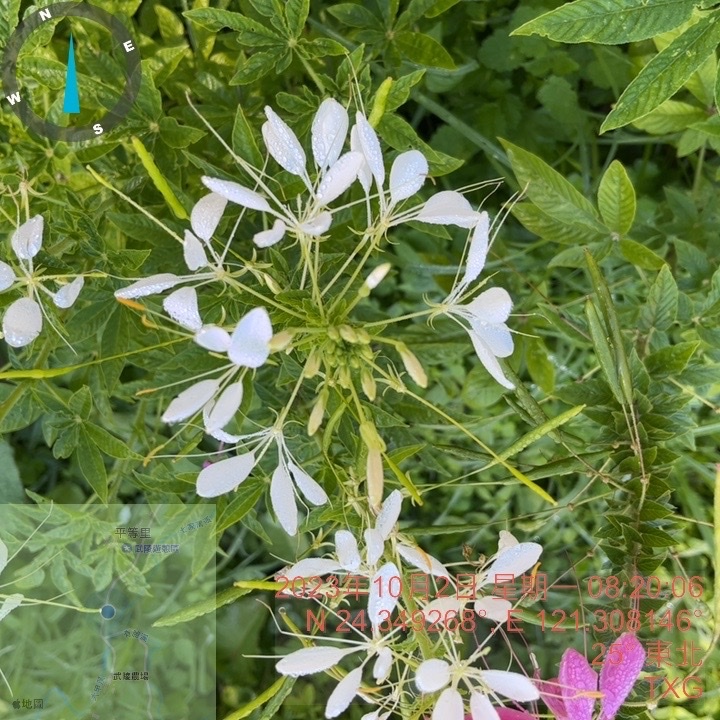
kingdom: Plantae
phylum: Tracheophyta
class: Magnoliopsida
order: Brassicales
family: Cleomaceae
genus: Tarenaya
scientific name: Tarenaya houtteana
